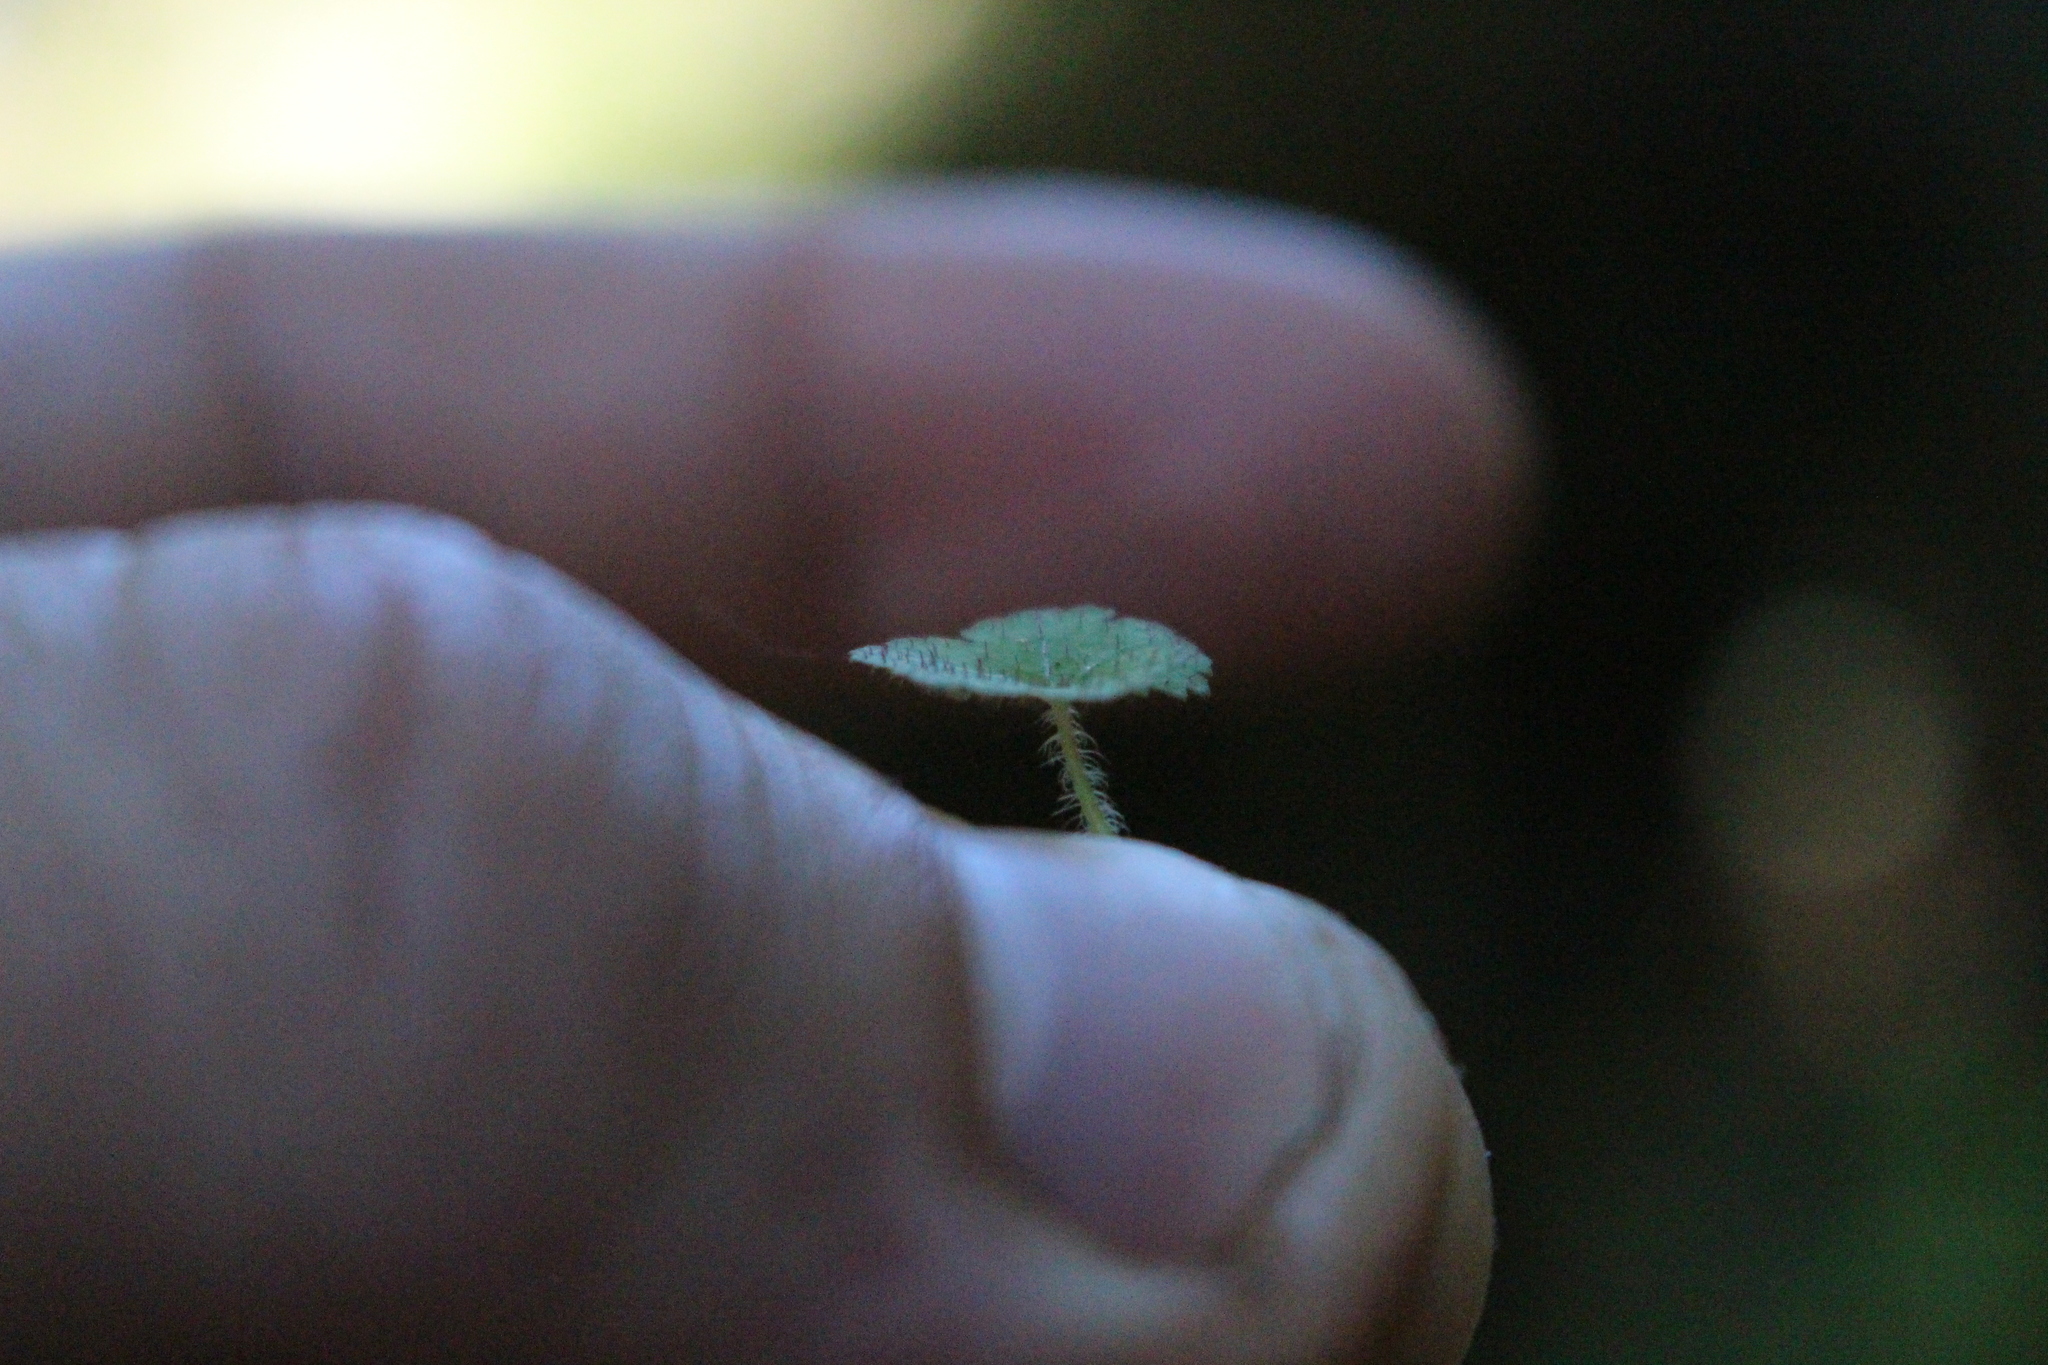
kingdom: Plantae
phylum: Tracheophyta
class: Magnoliopsida
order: Apiales
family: Araliaceae
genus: Hydrocotyle
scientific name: Hydrocotyle moschata
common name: Hairy pennywort
